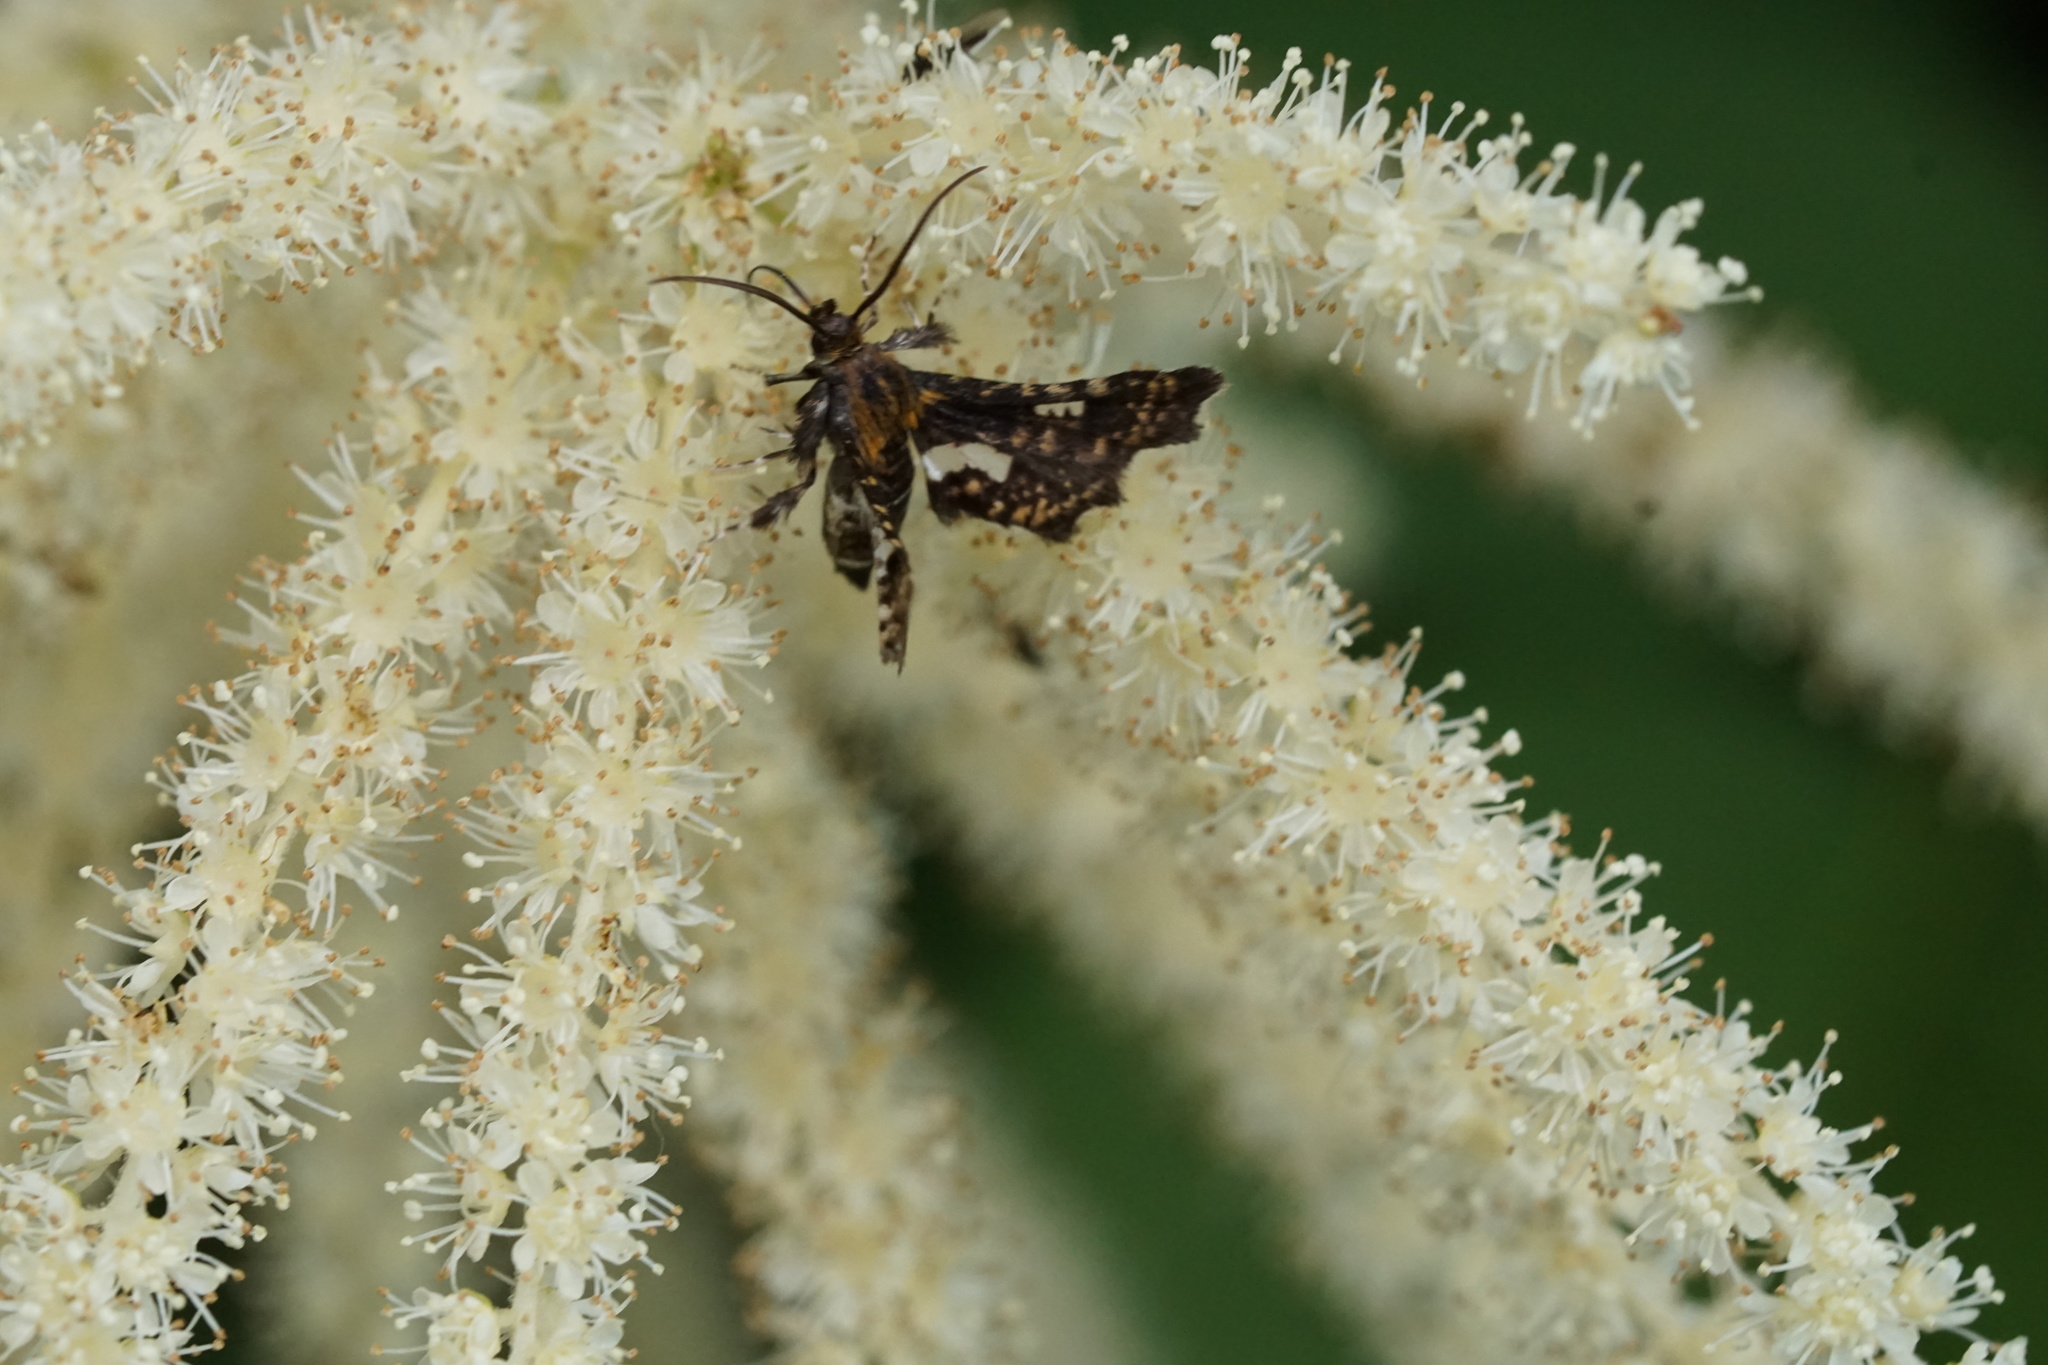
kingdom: Animalia
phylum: Arthropoda
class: Insecta
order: Lepidoptera
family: Thyrididae
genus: Thyris
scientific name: Thyris maculata
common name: Spotted thyris moth
